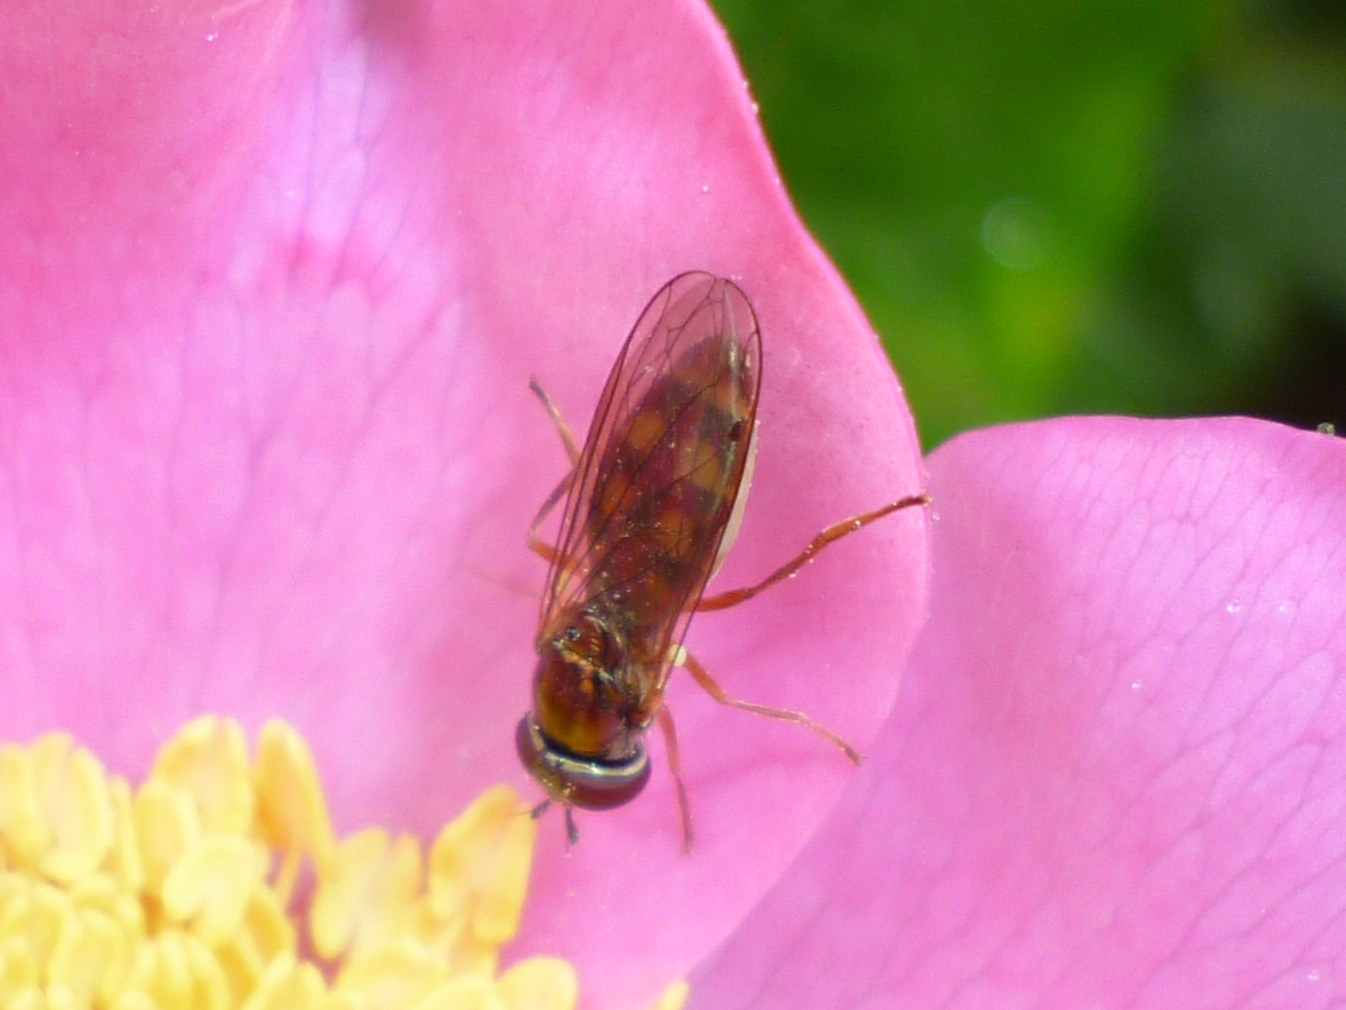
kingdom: Animalia
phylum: Arthropoda
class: Insecta
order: Diptera
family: Syrphidae
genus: Melanostoma
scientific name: Melanostoma mellina
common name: Hover fly
